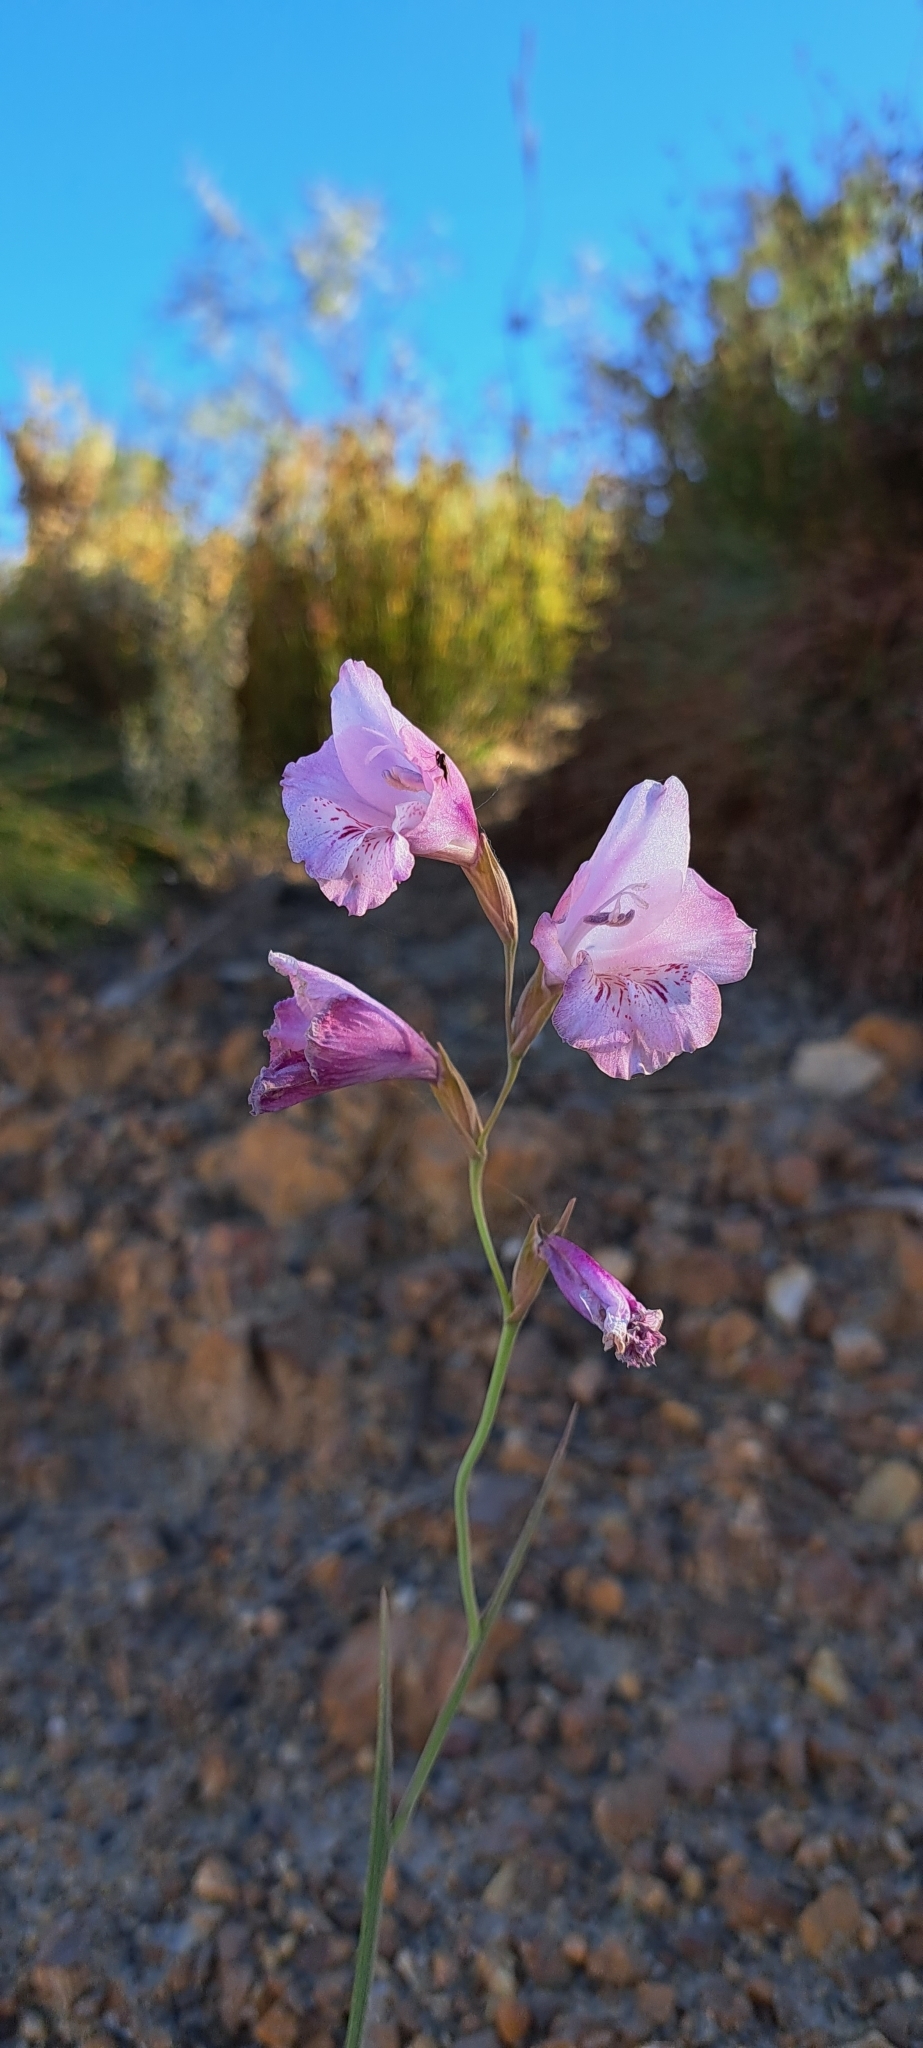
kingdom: Plantae
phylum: Tracheophyta
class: Liliopsida
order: Asparagales
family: Iridaceae
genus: Gladiolus
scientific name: Gladiolus hirsutus
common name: Small pink afrikaner
